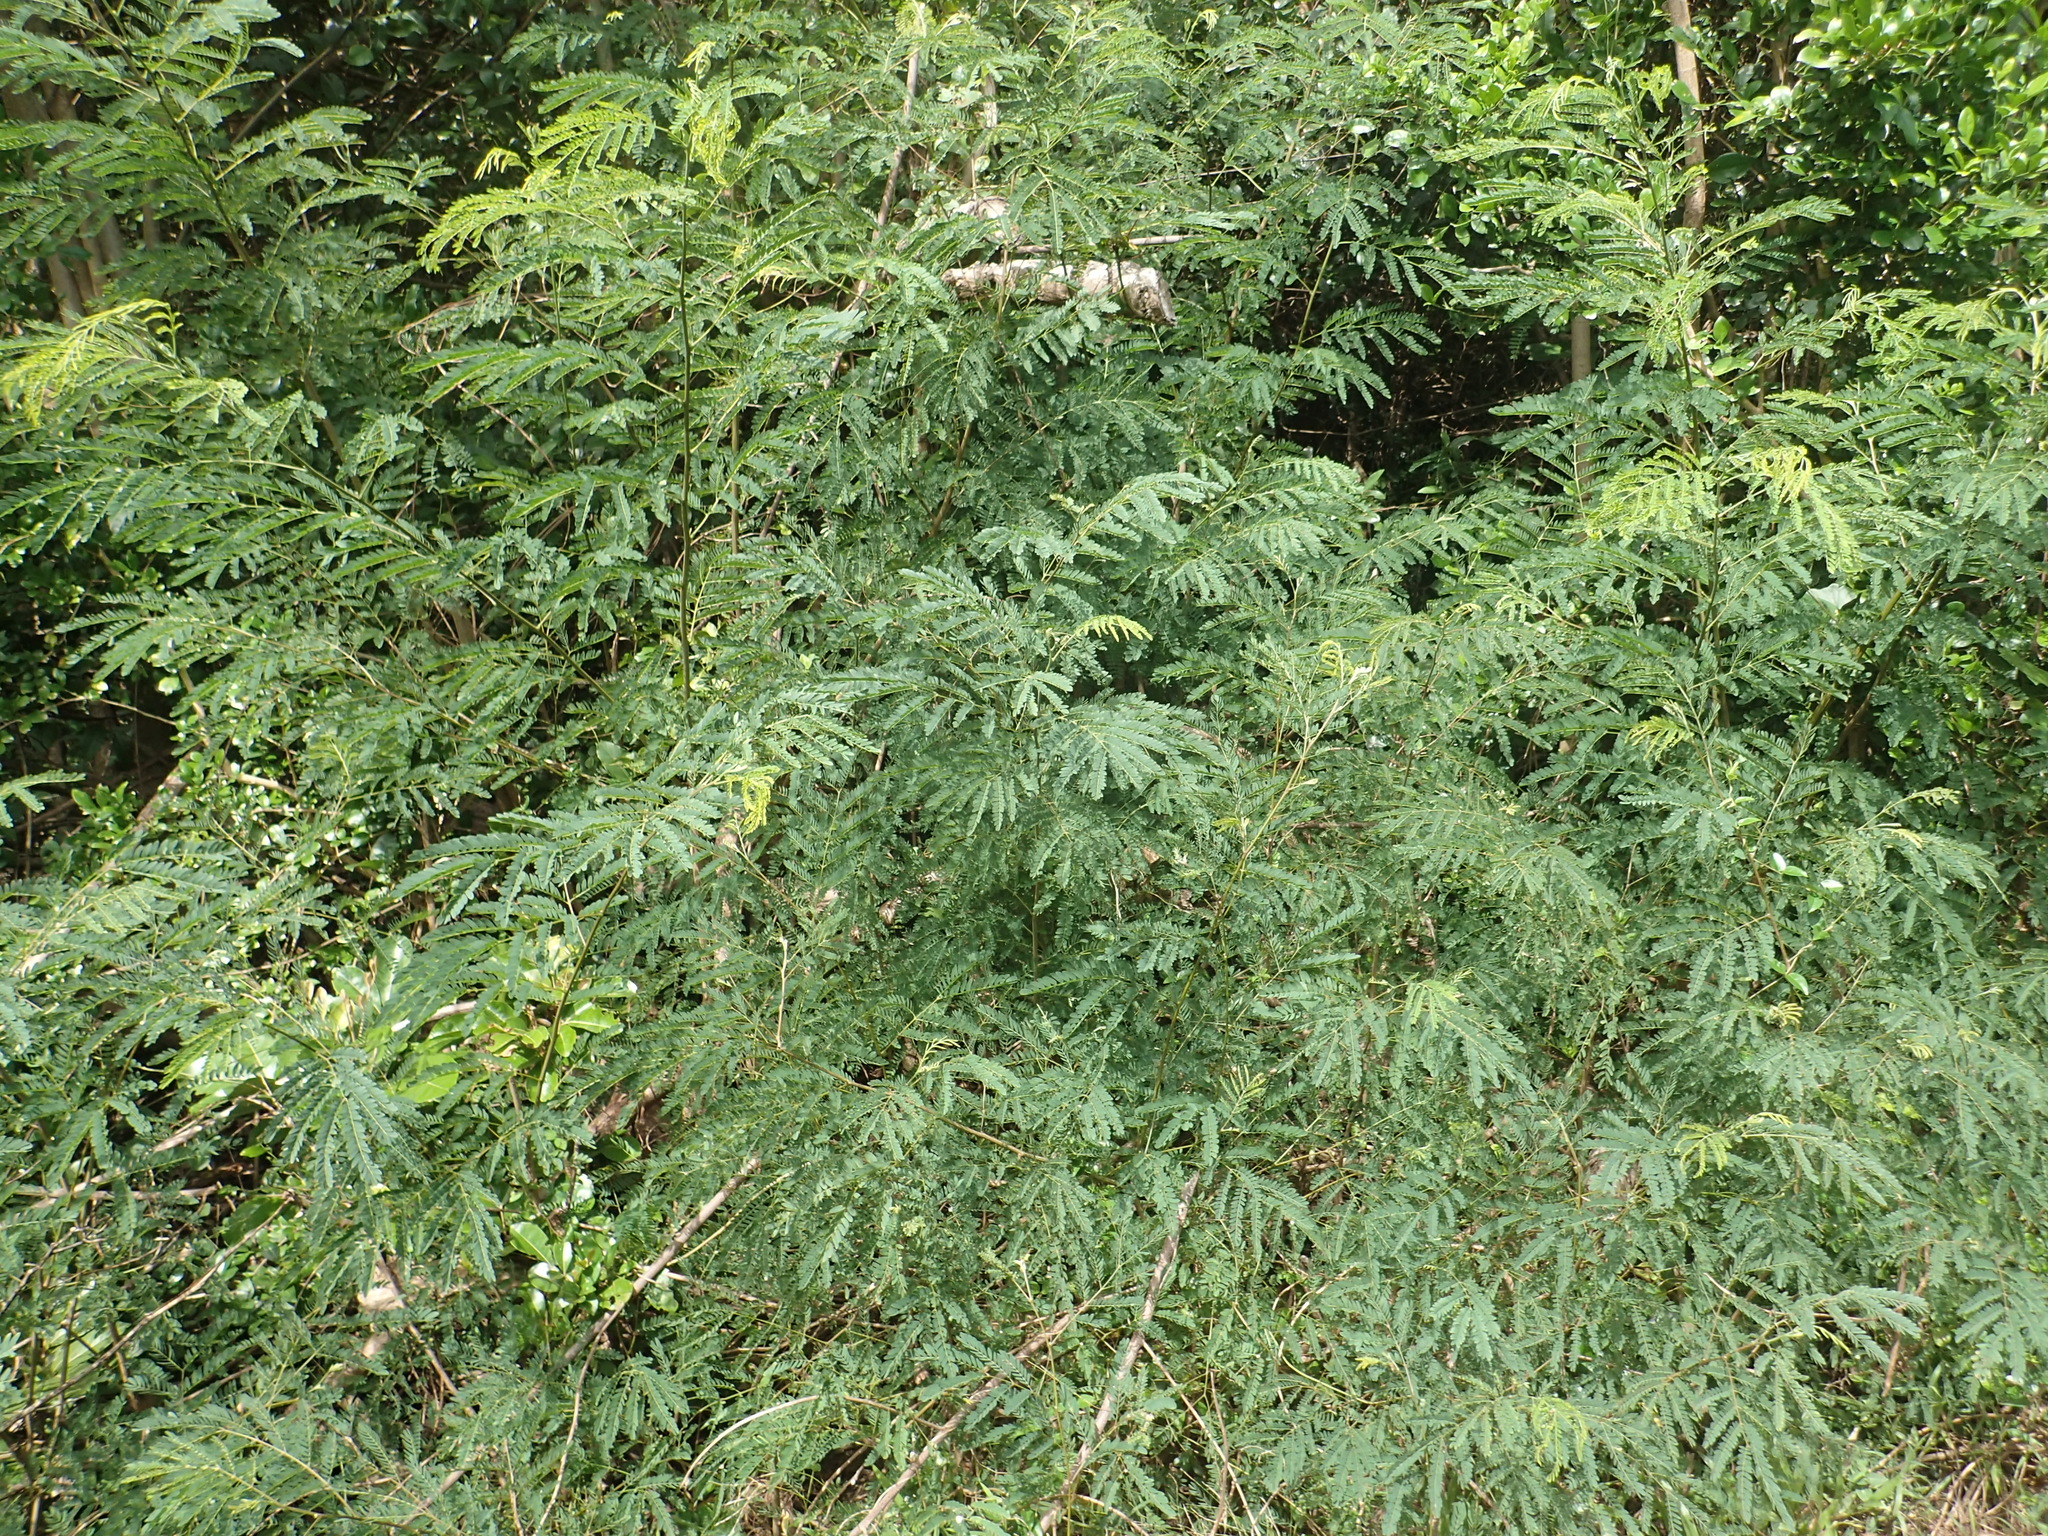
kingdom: Plantae
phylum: Tracheophyta
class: Magnoliopsida
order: Fabales
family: Fabaceae
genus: Leucaena
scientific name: Leucaena leucocephala
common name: White leadtree
